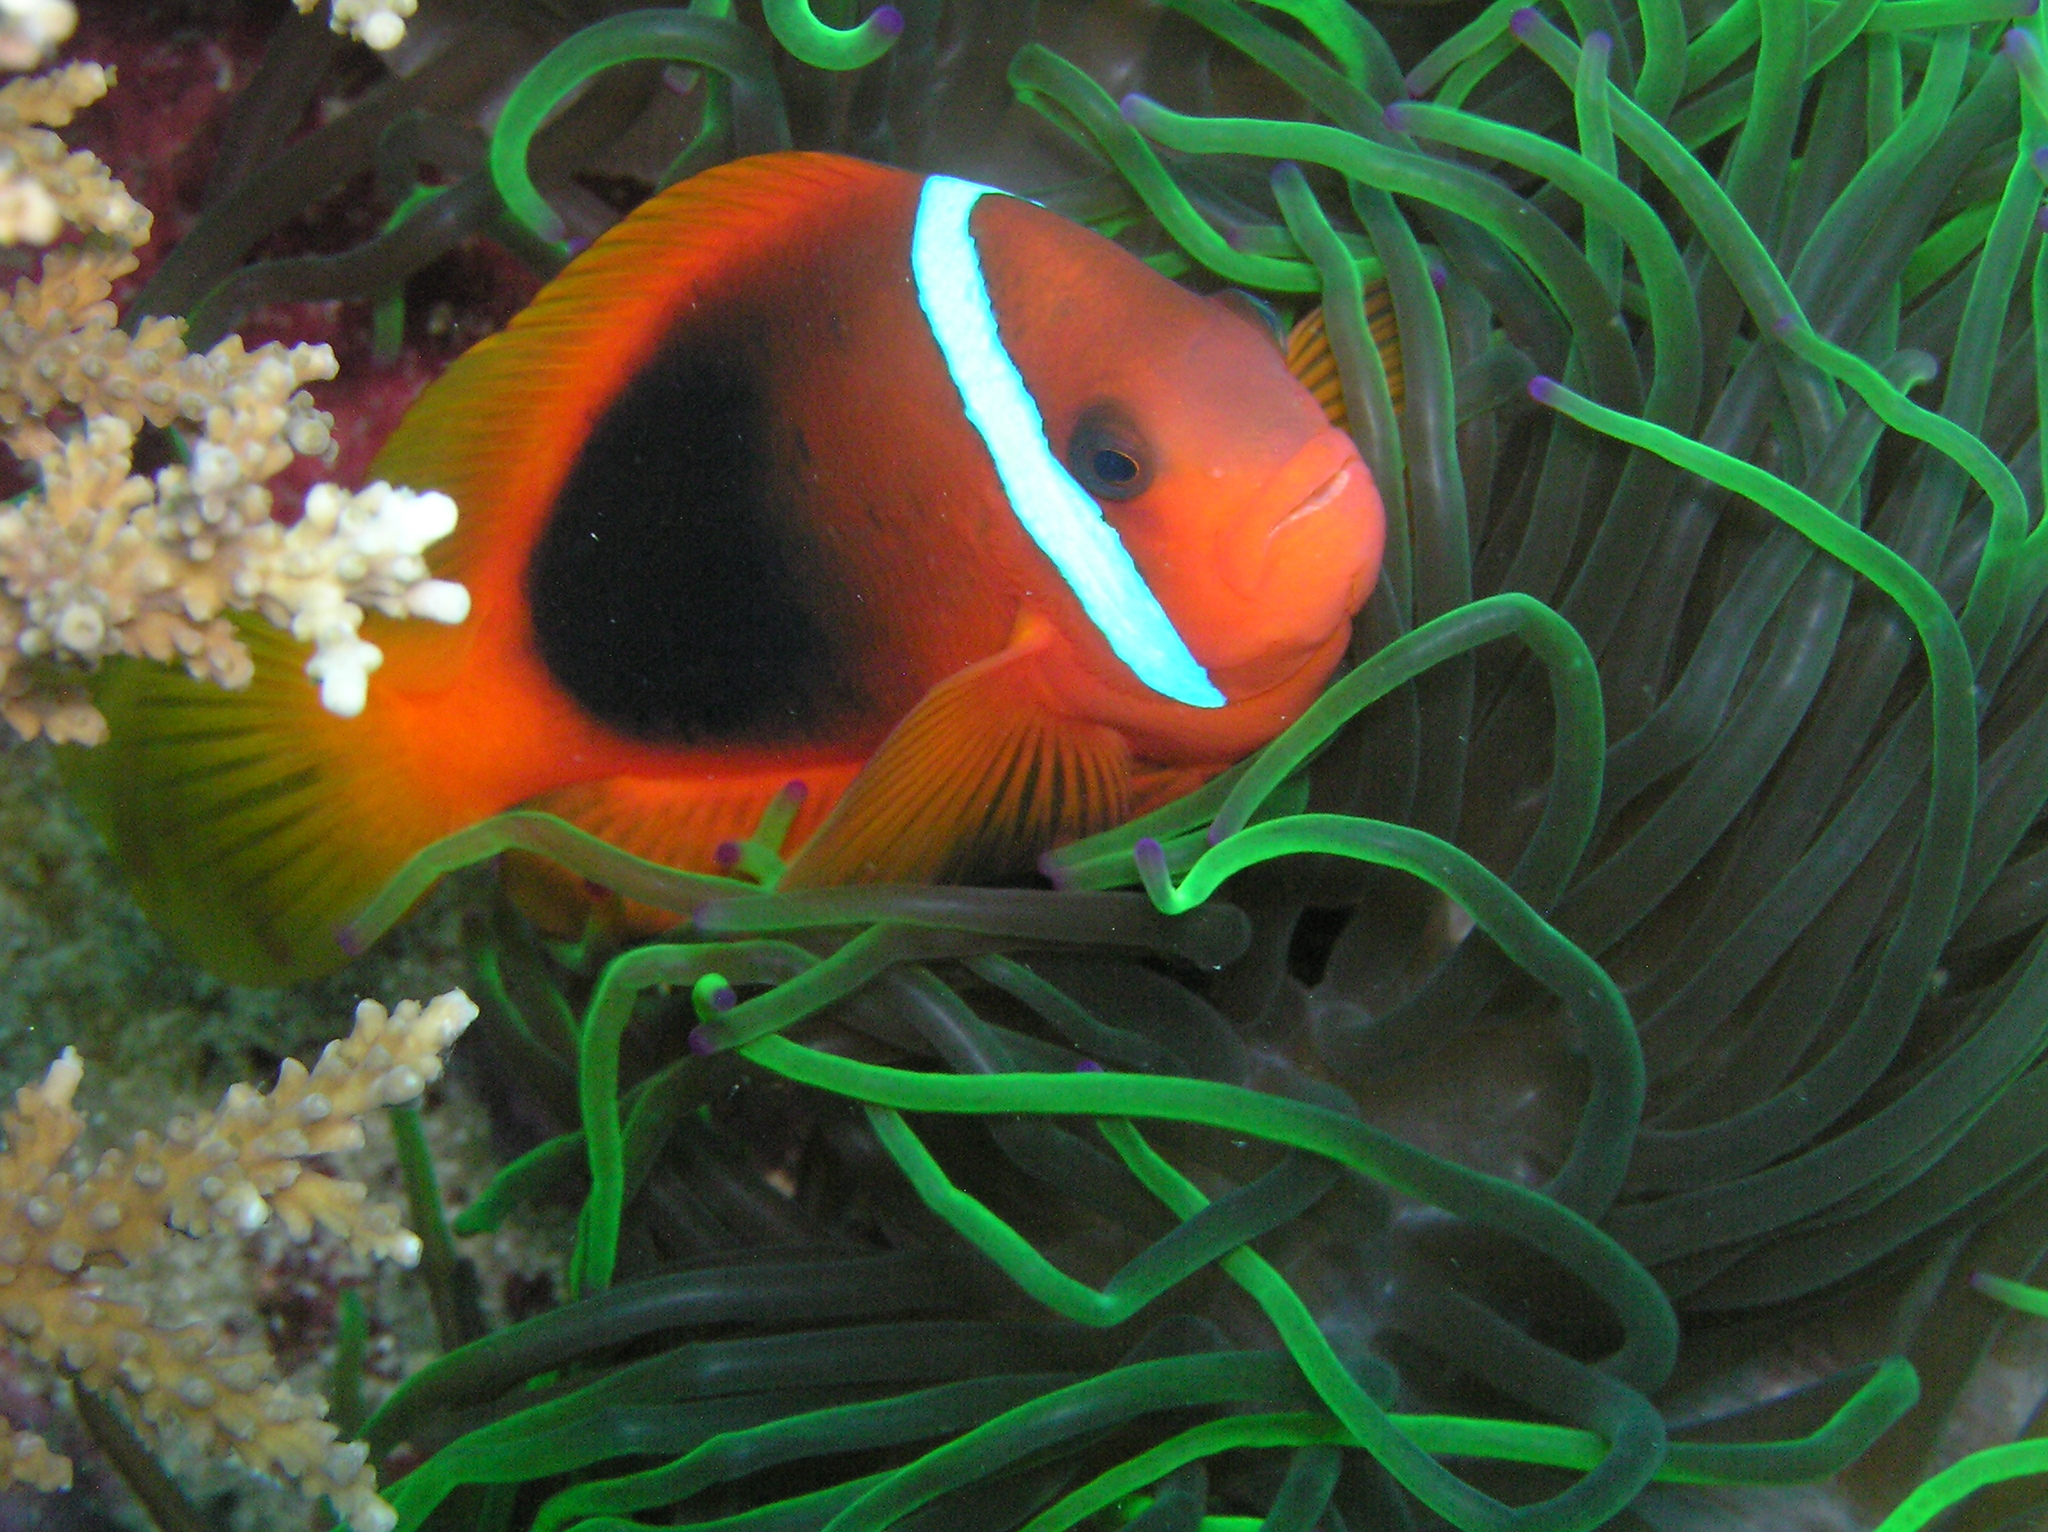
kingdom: Animalia
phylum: Chordata
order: Perciformes
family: Pomacentridae
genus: Amphiprion
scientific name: Amphiprion melanopus
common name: Black anemonefish
